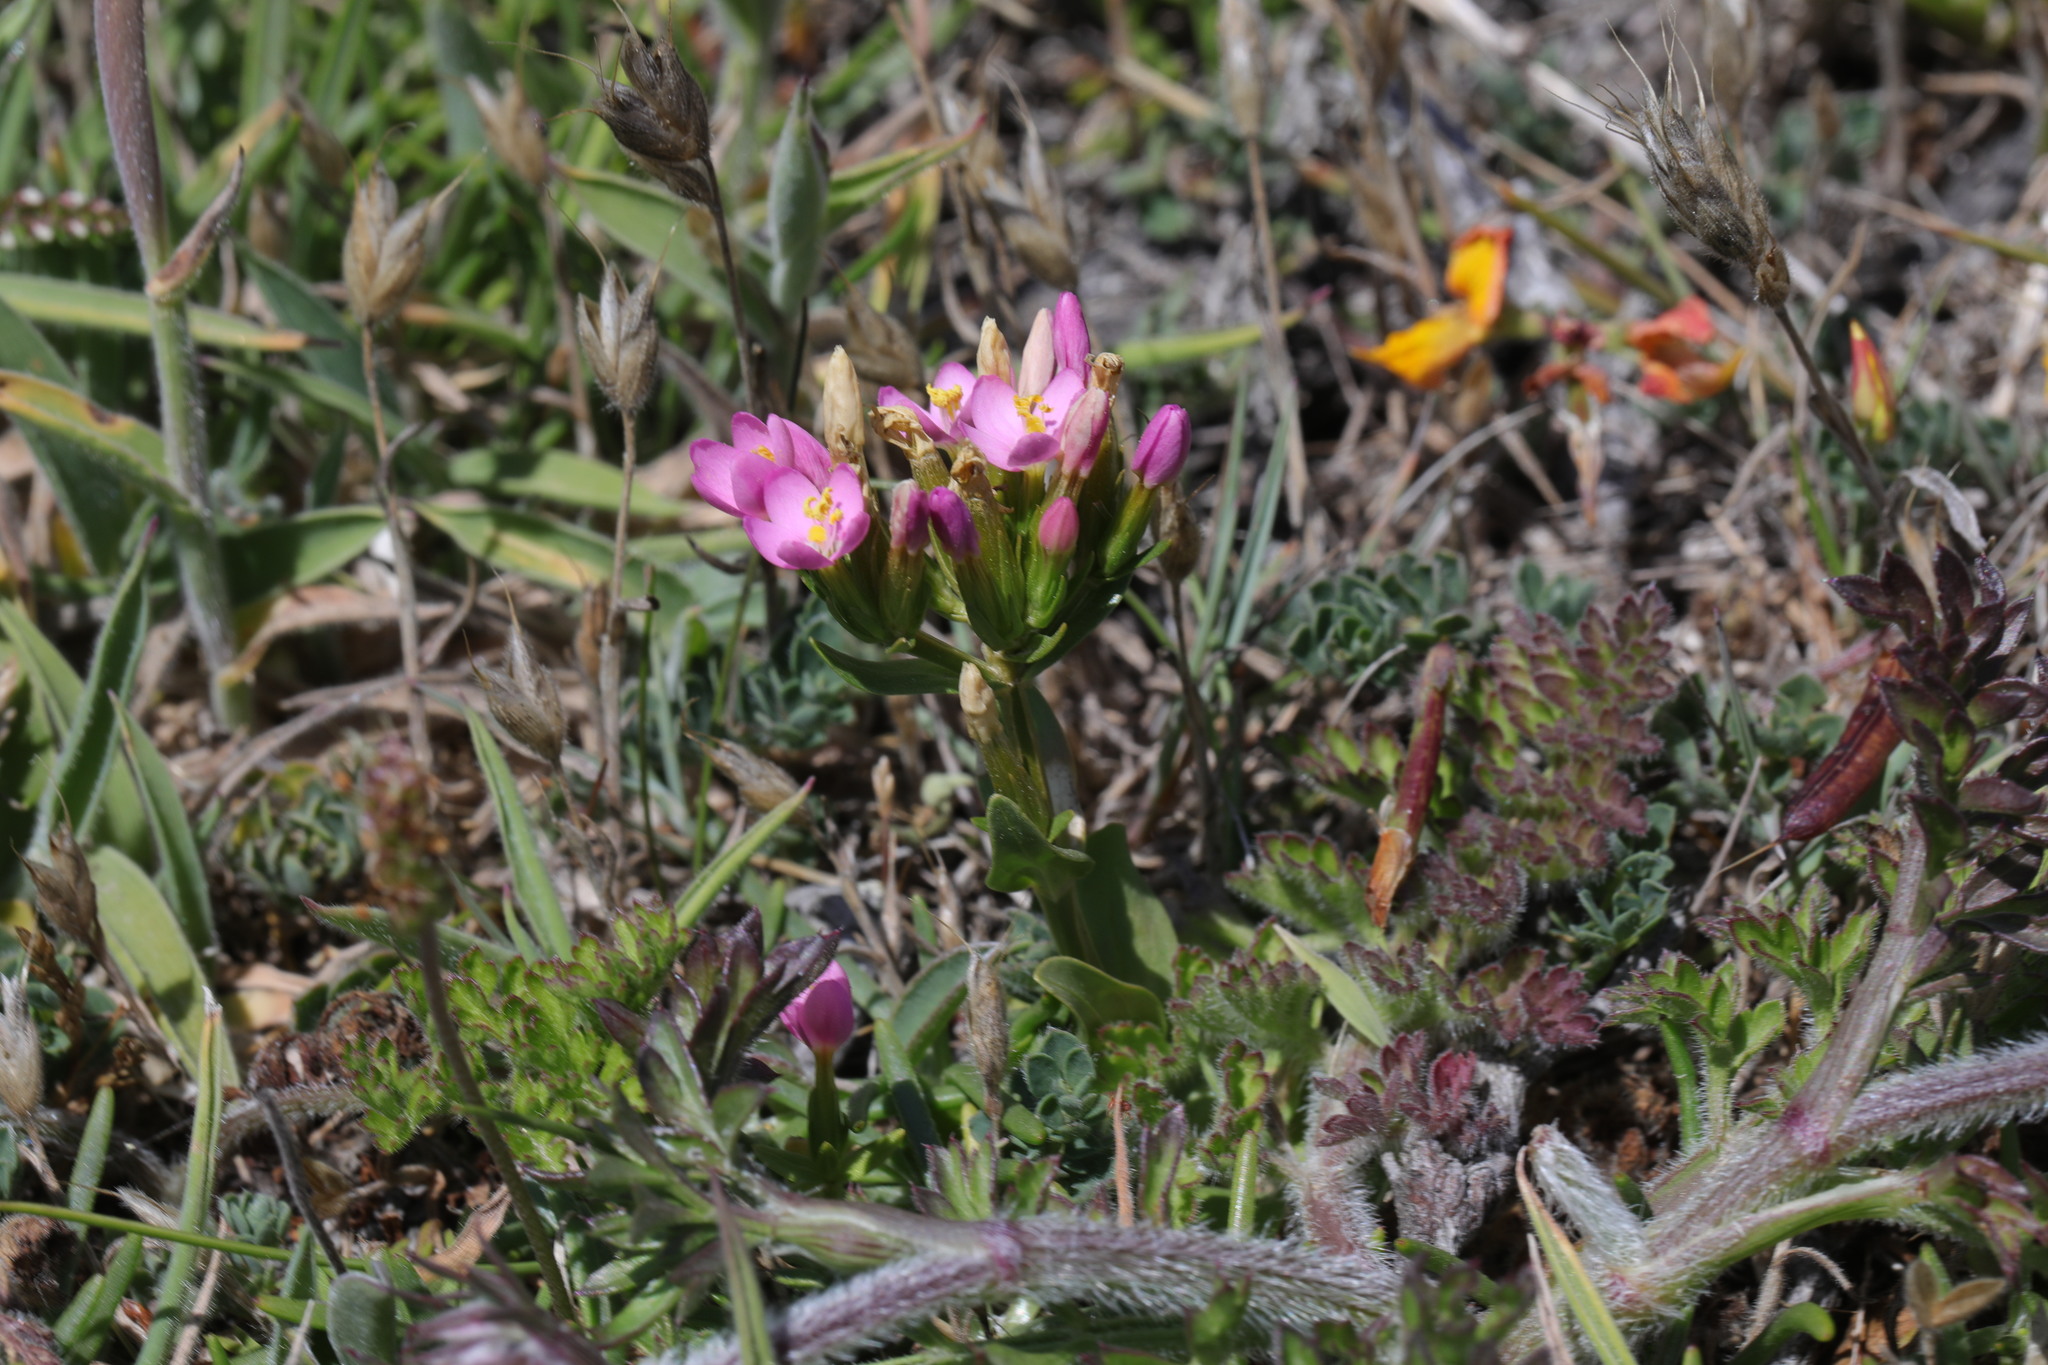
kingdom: Plantae
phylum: Tracheophyta
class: Magnoliopsida
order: Gentianales
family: Gentianaceae
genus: Centaurium
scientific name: Centaurium erythraea
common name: Common centaury
